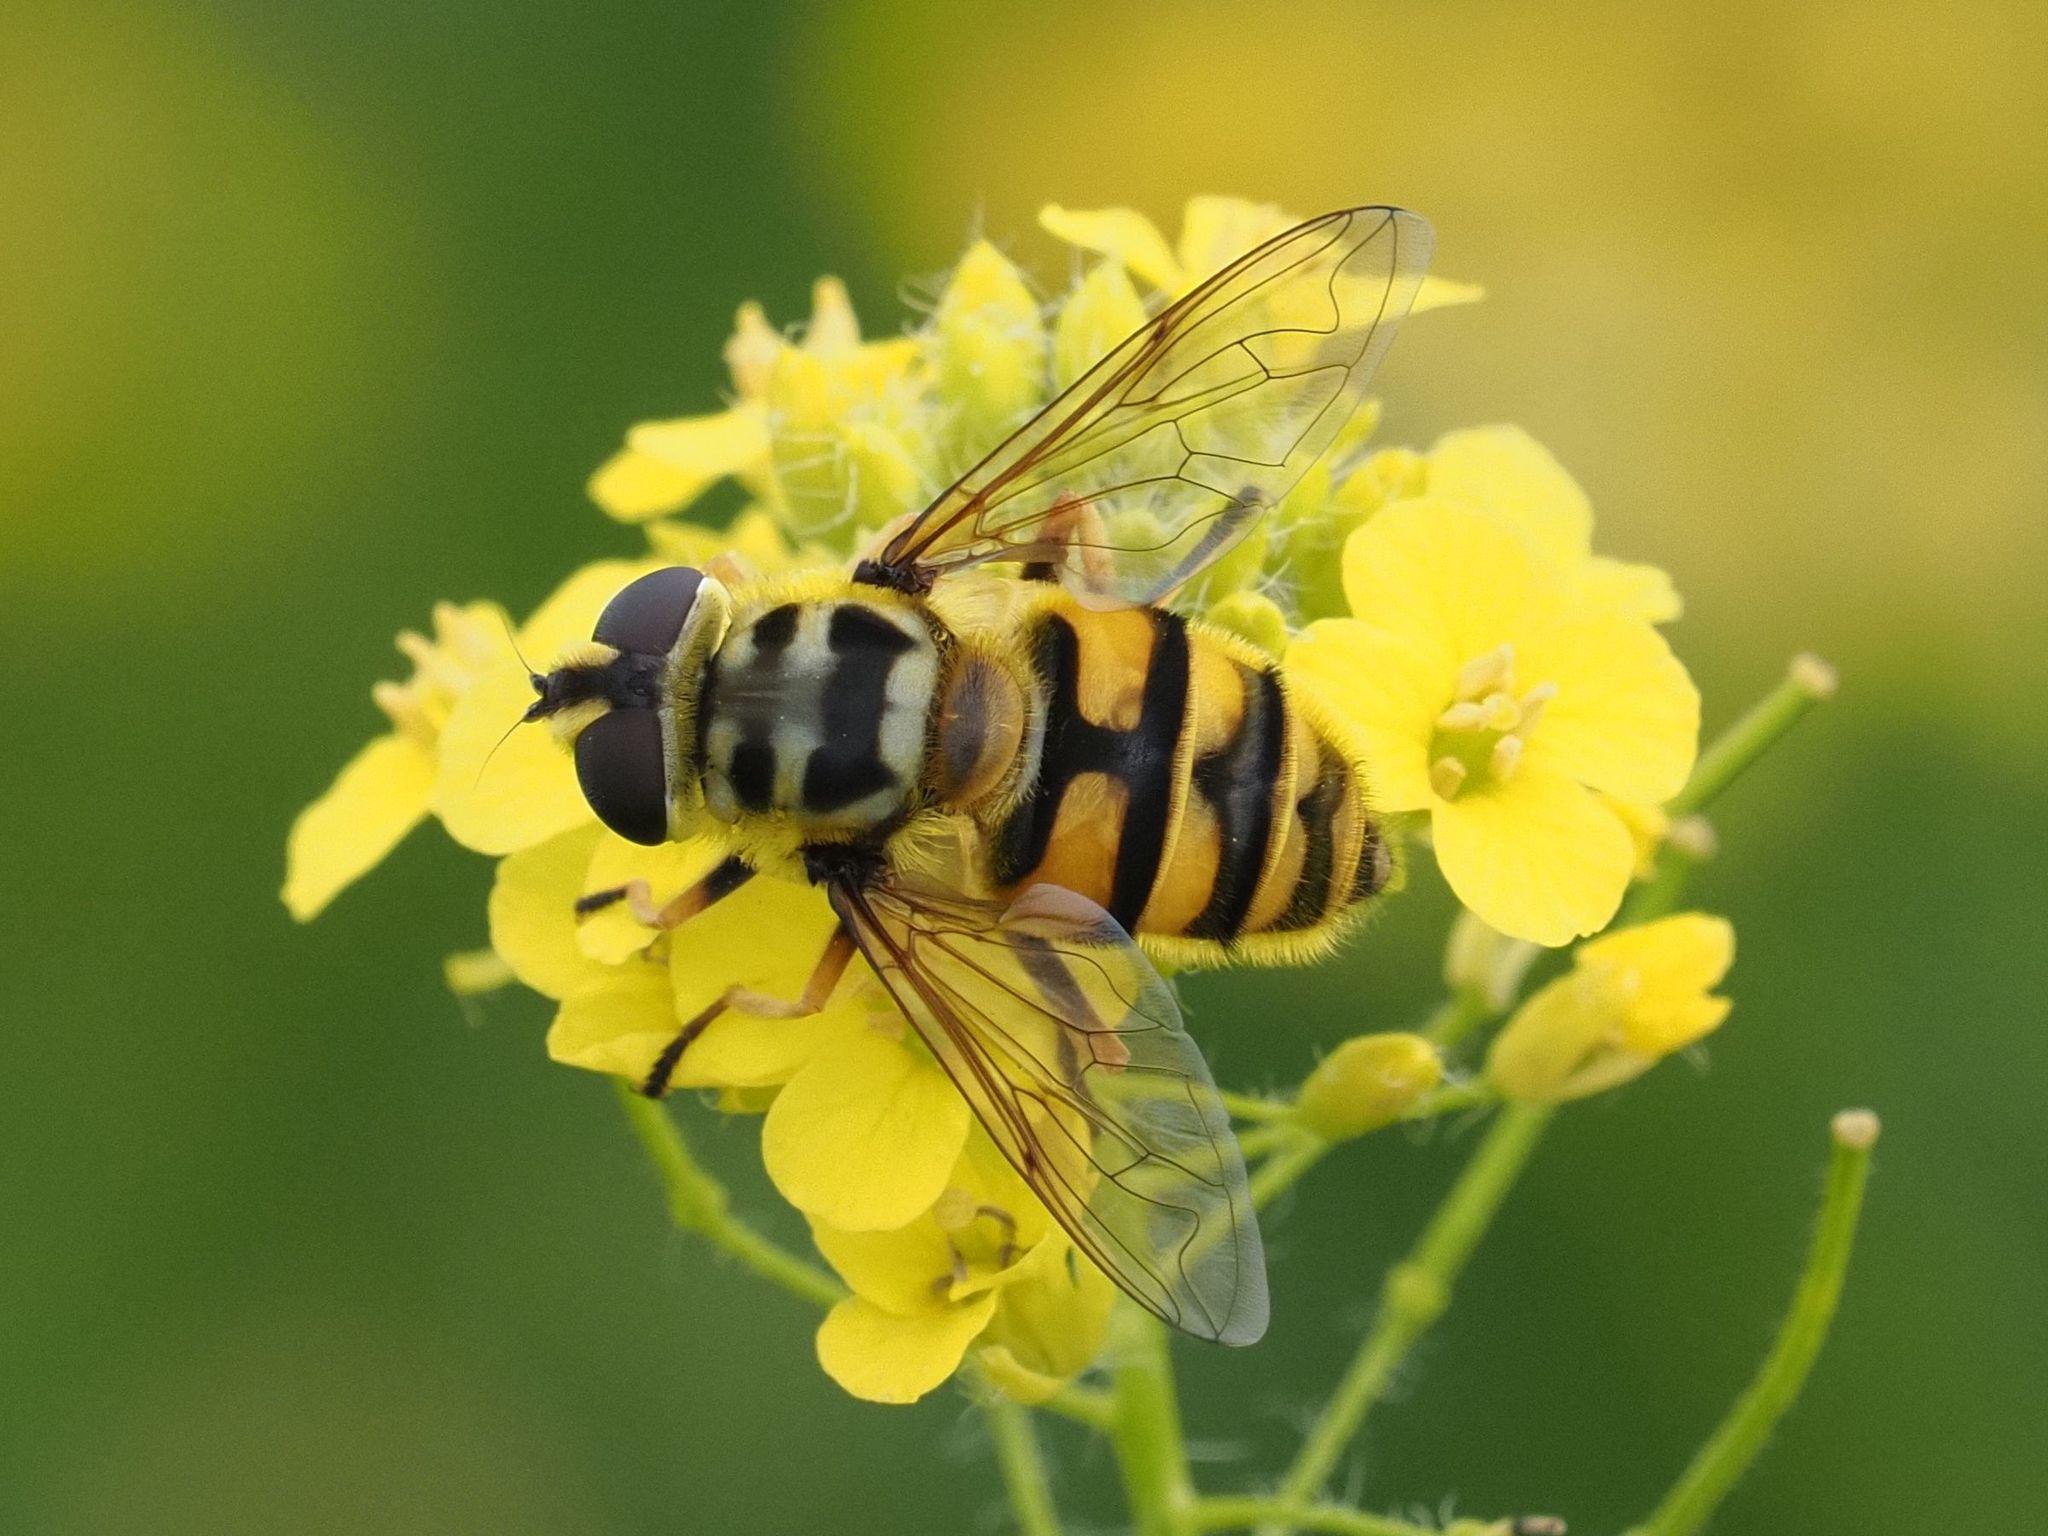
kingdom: Animalia
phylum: Arthropoda
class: Insecta
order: Diptera
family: Syrphidae
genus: Myathropa
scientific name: Myathropa florea
